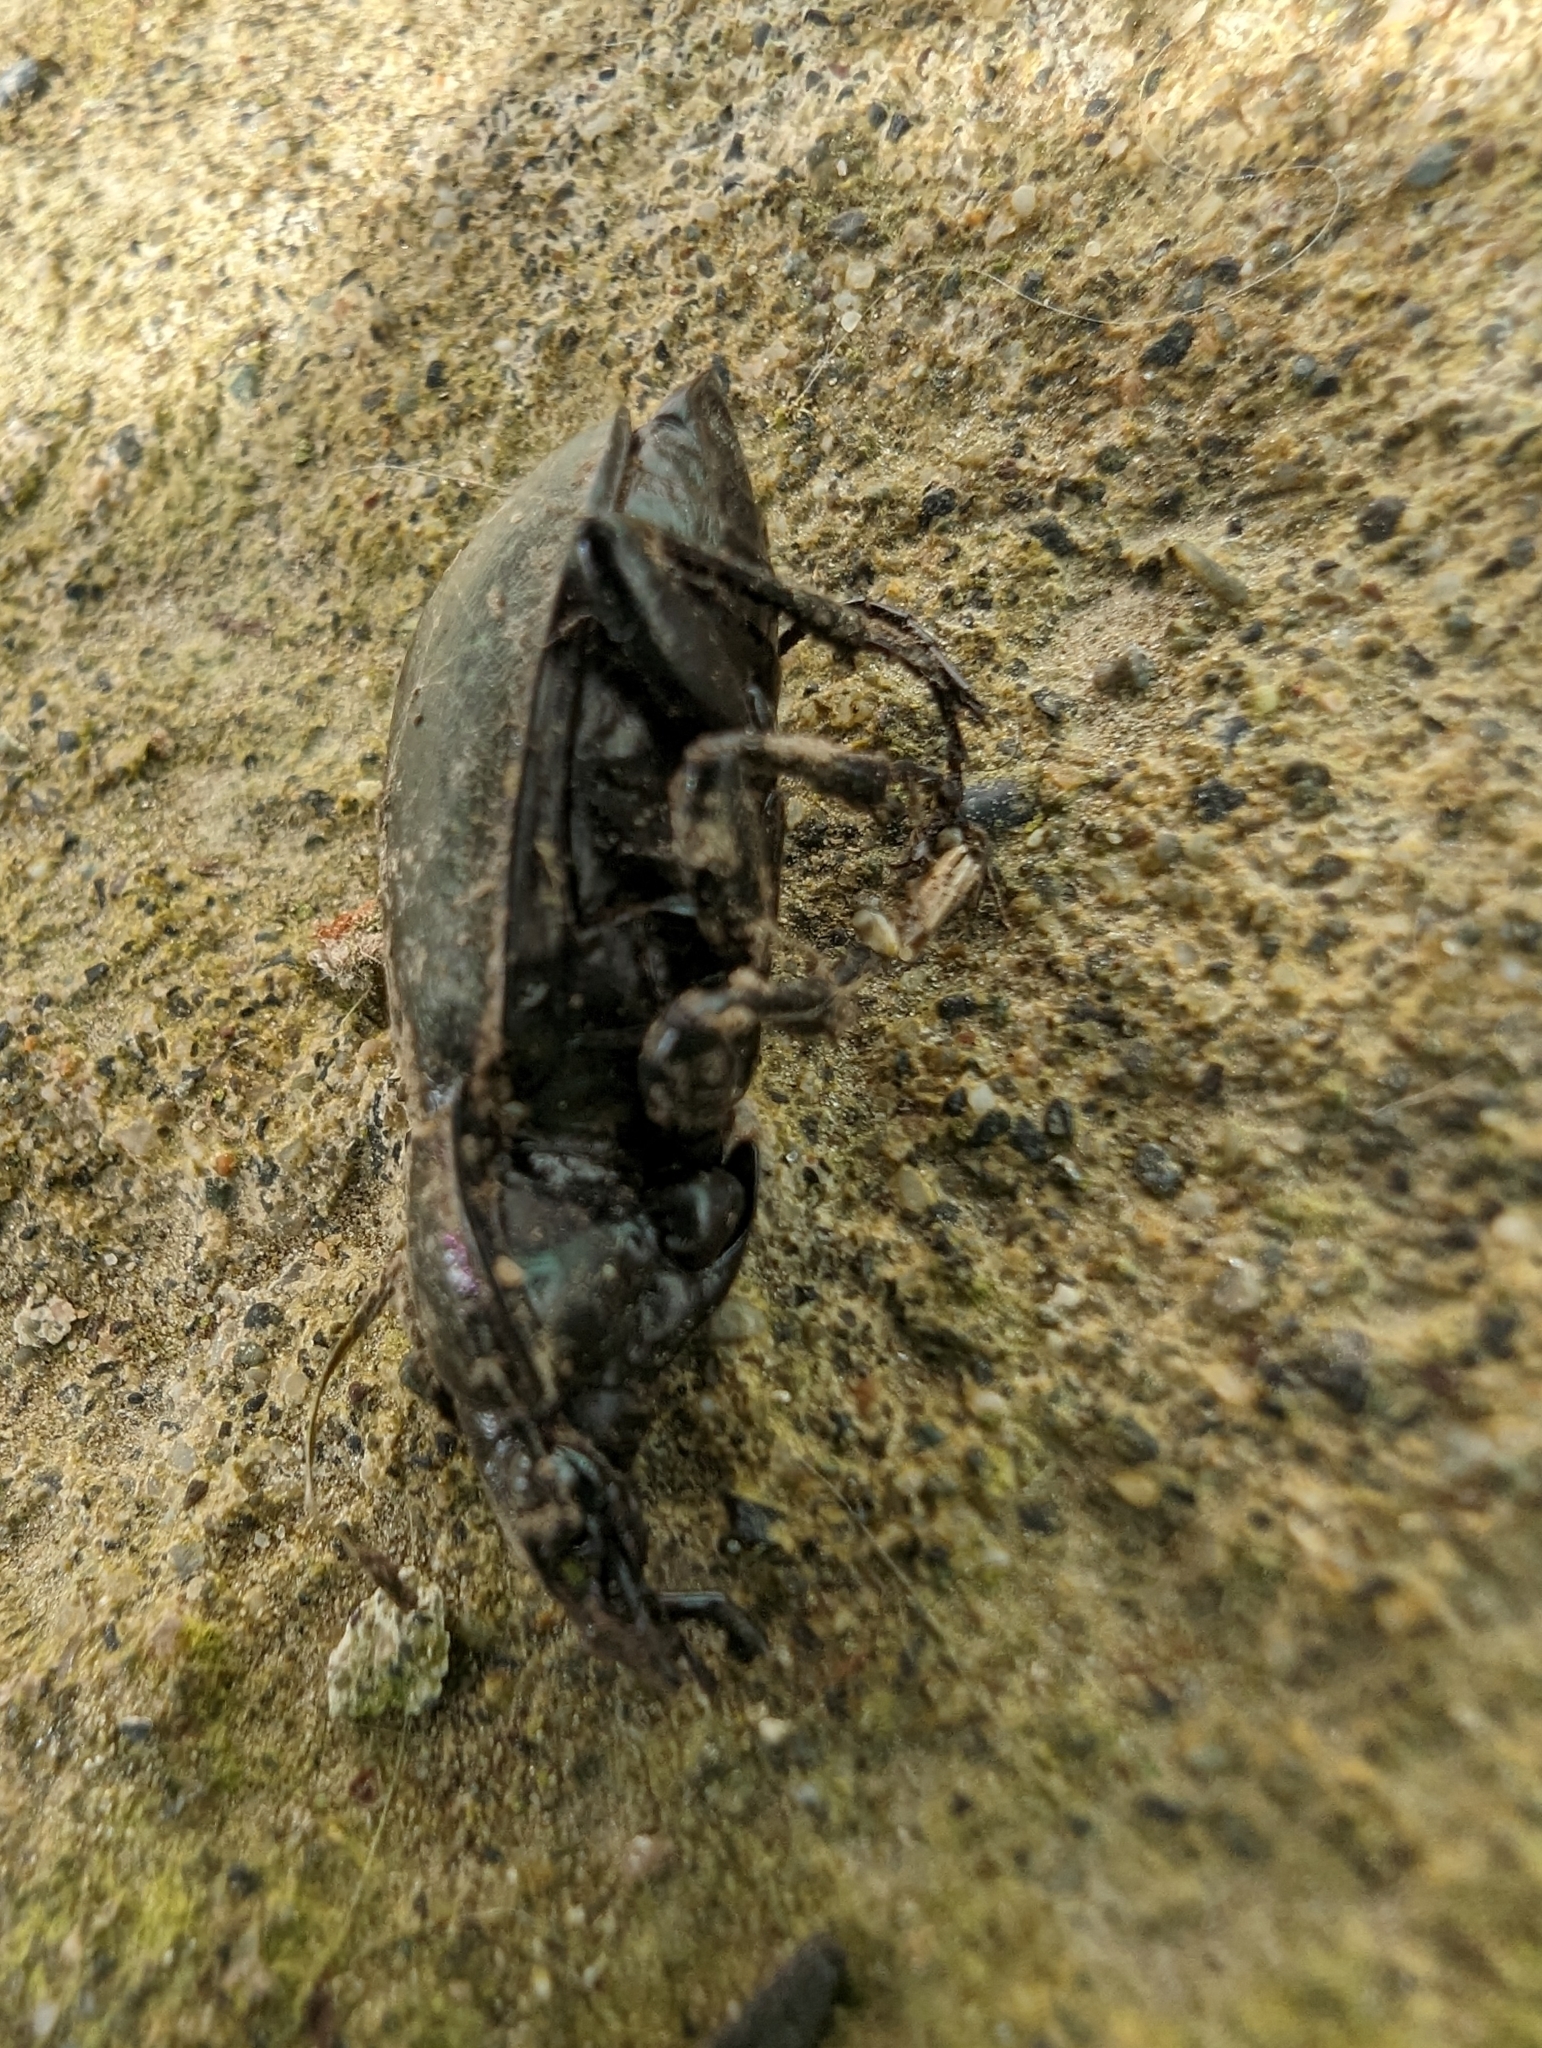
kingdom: Animalia
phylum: Arthropoda
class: Insecta
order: Coleoptera
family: Carabidae
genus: Carabus
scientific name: Carabus nemoralis
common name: European ground beetle
